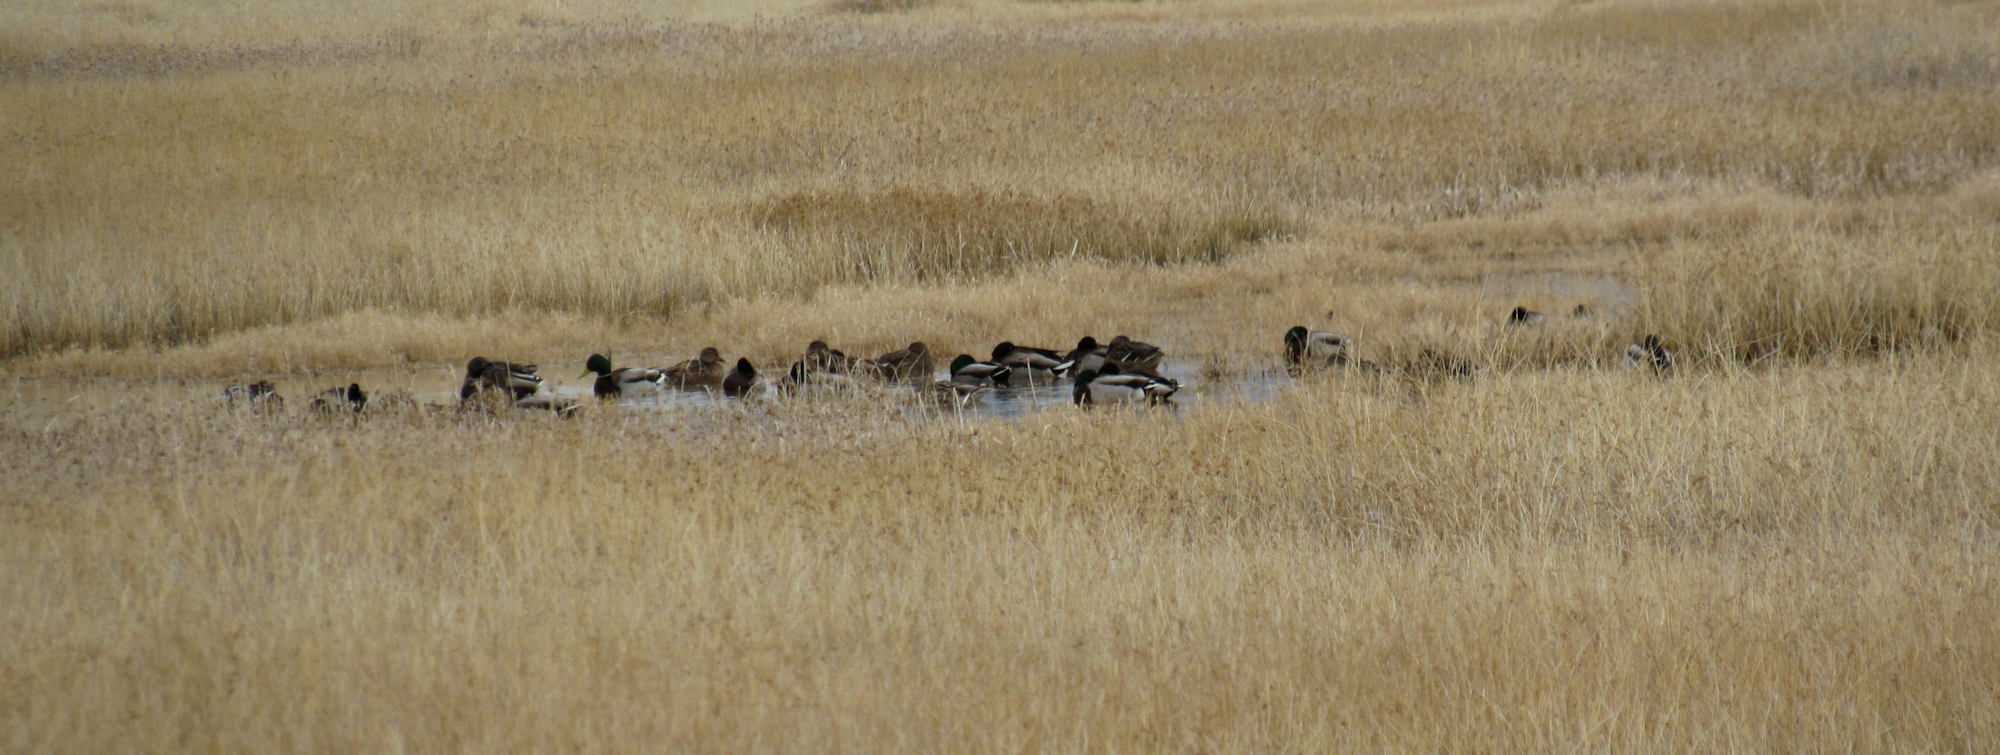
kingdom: Animalia
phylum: Chordata
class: Aves
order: Anseriformes
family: Anatidae
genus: Anas
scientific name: Anas platyrhynchos
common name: Mallard
